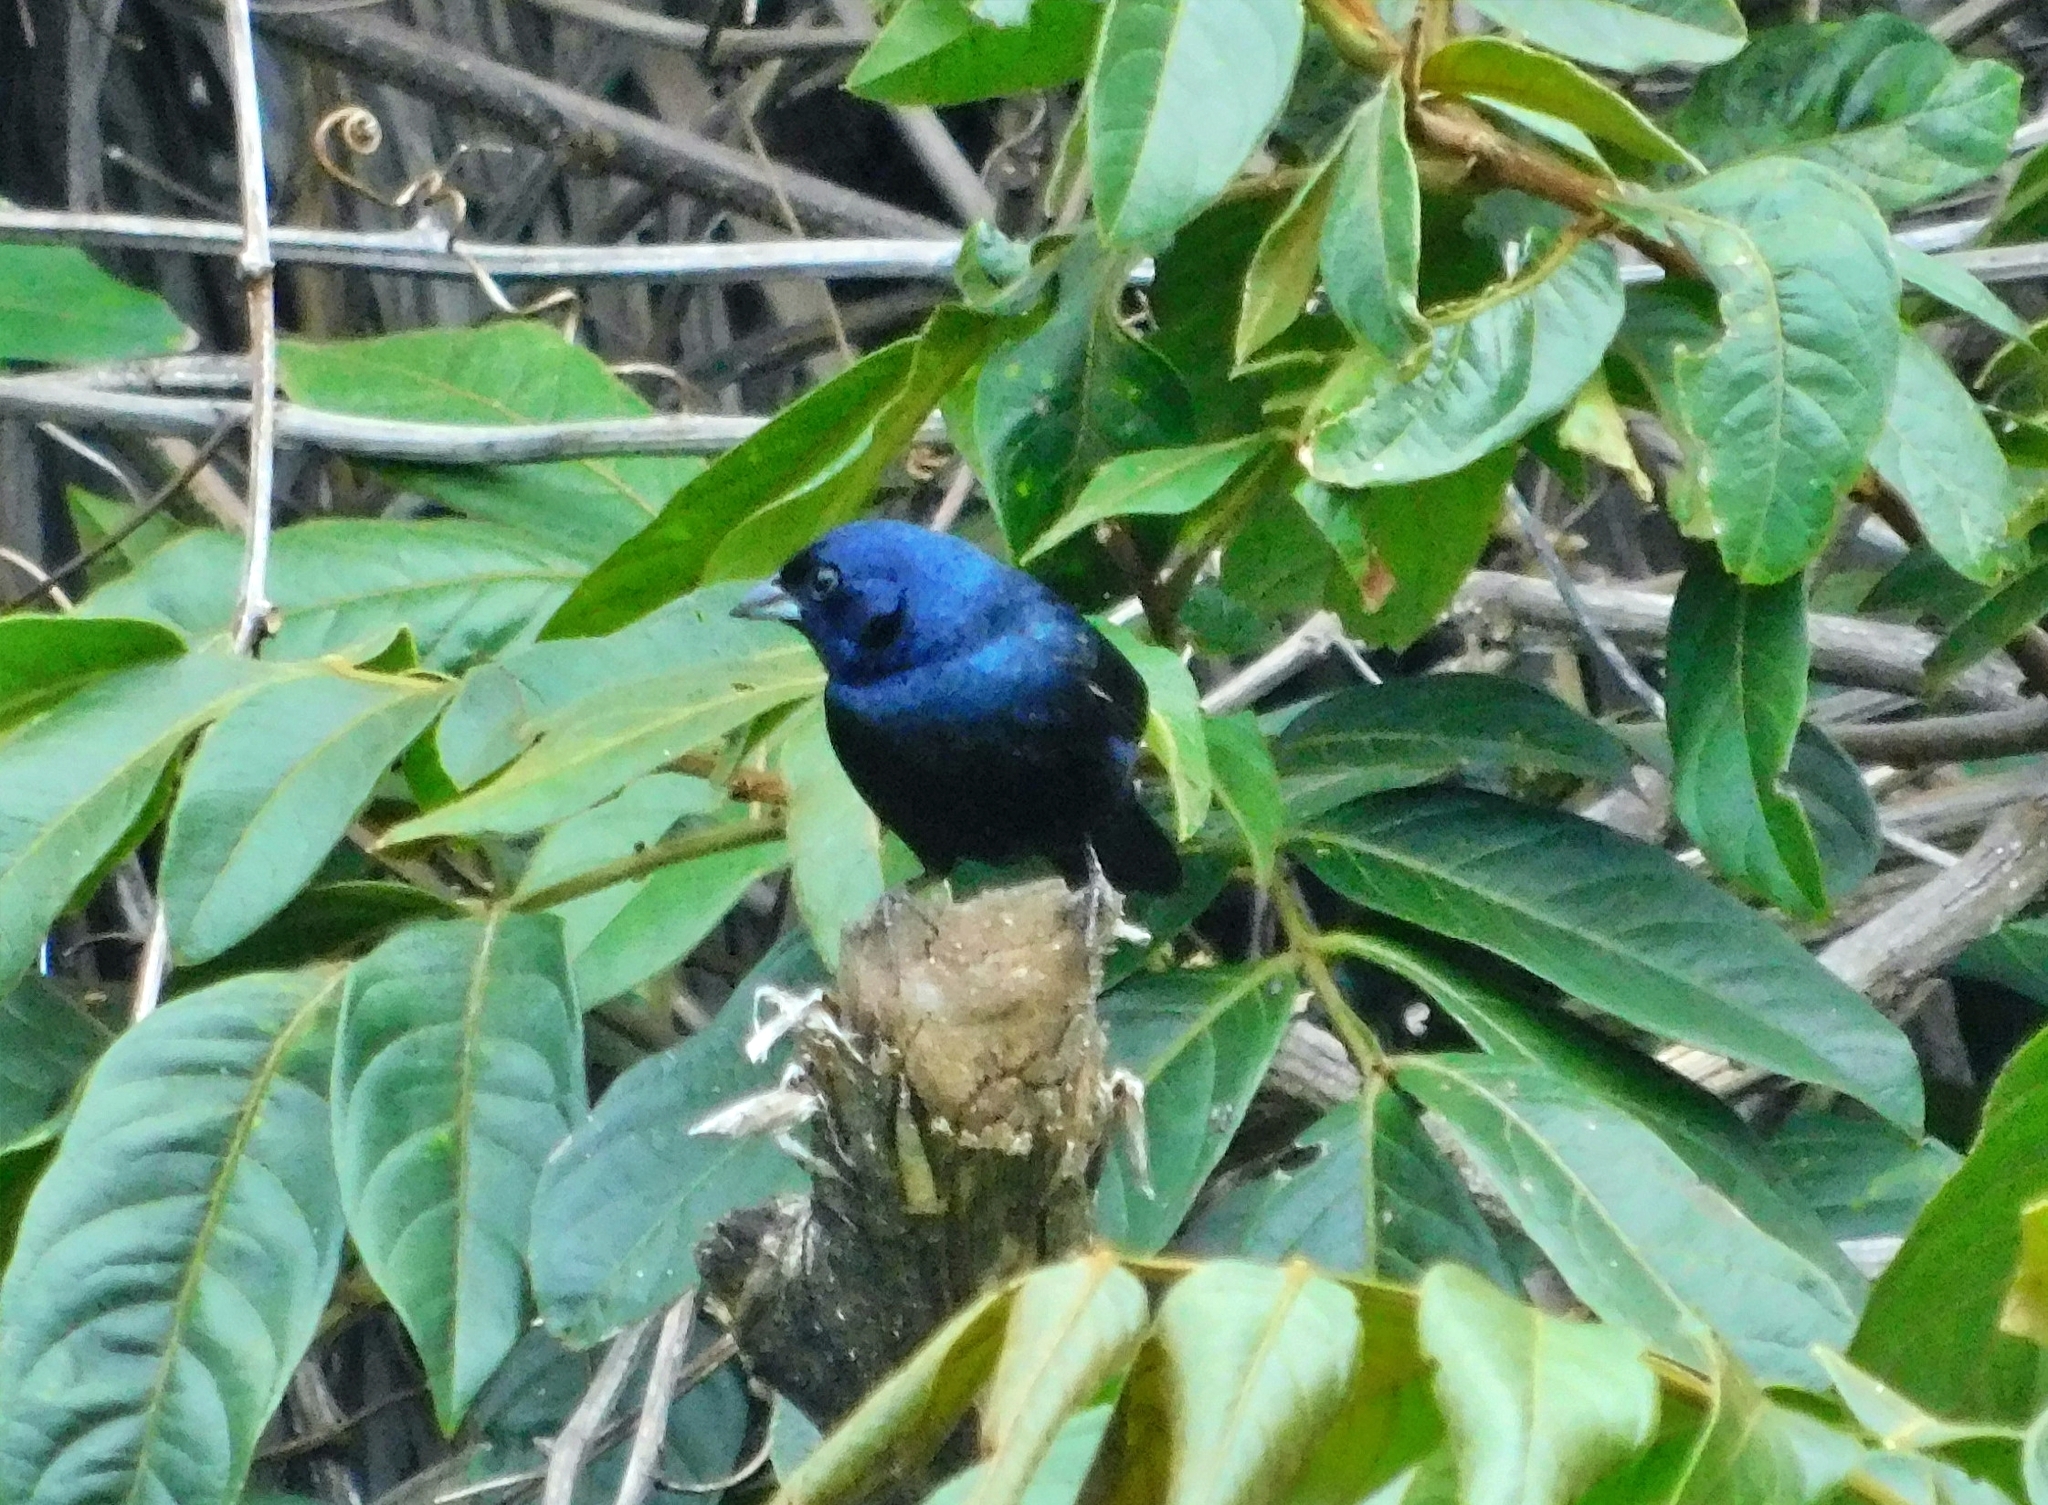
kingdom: Animalia
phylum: Chordata
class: Aves
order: Passeriformes
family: Thraupidae
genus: Volatinia
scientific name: Volatinia jacarina
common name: Blue-black grassquit
